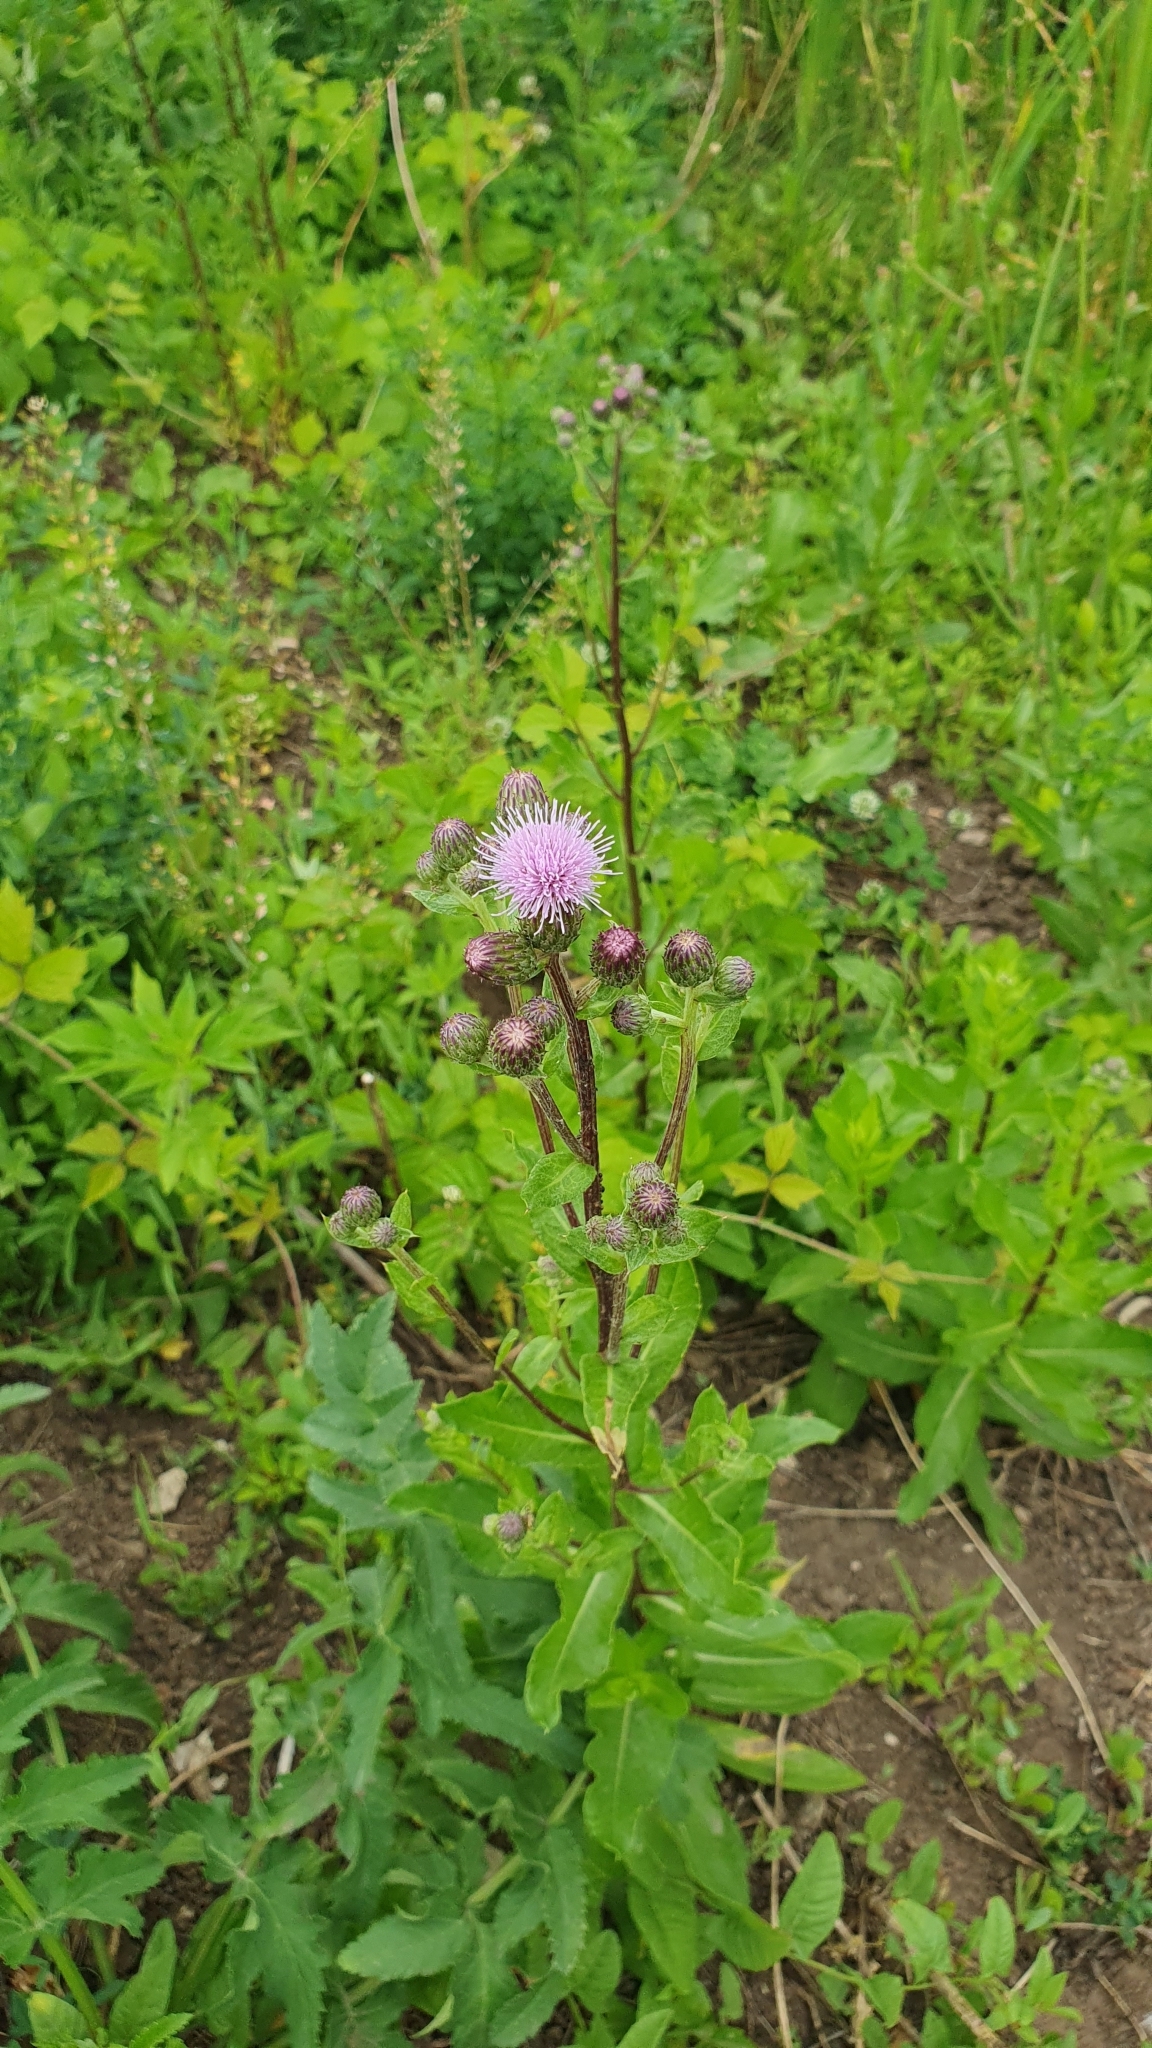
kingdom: Plantae
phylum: Tracheophyta
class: Magnoliopsida
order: Asterales
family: Asteraceae
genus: Cirsium
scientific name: Cirsium arvense
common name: Creeping thistle
